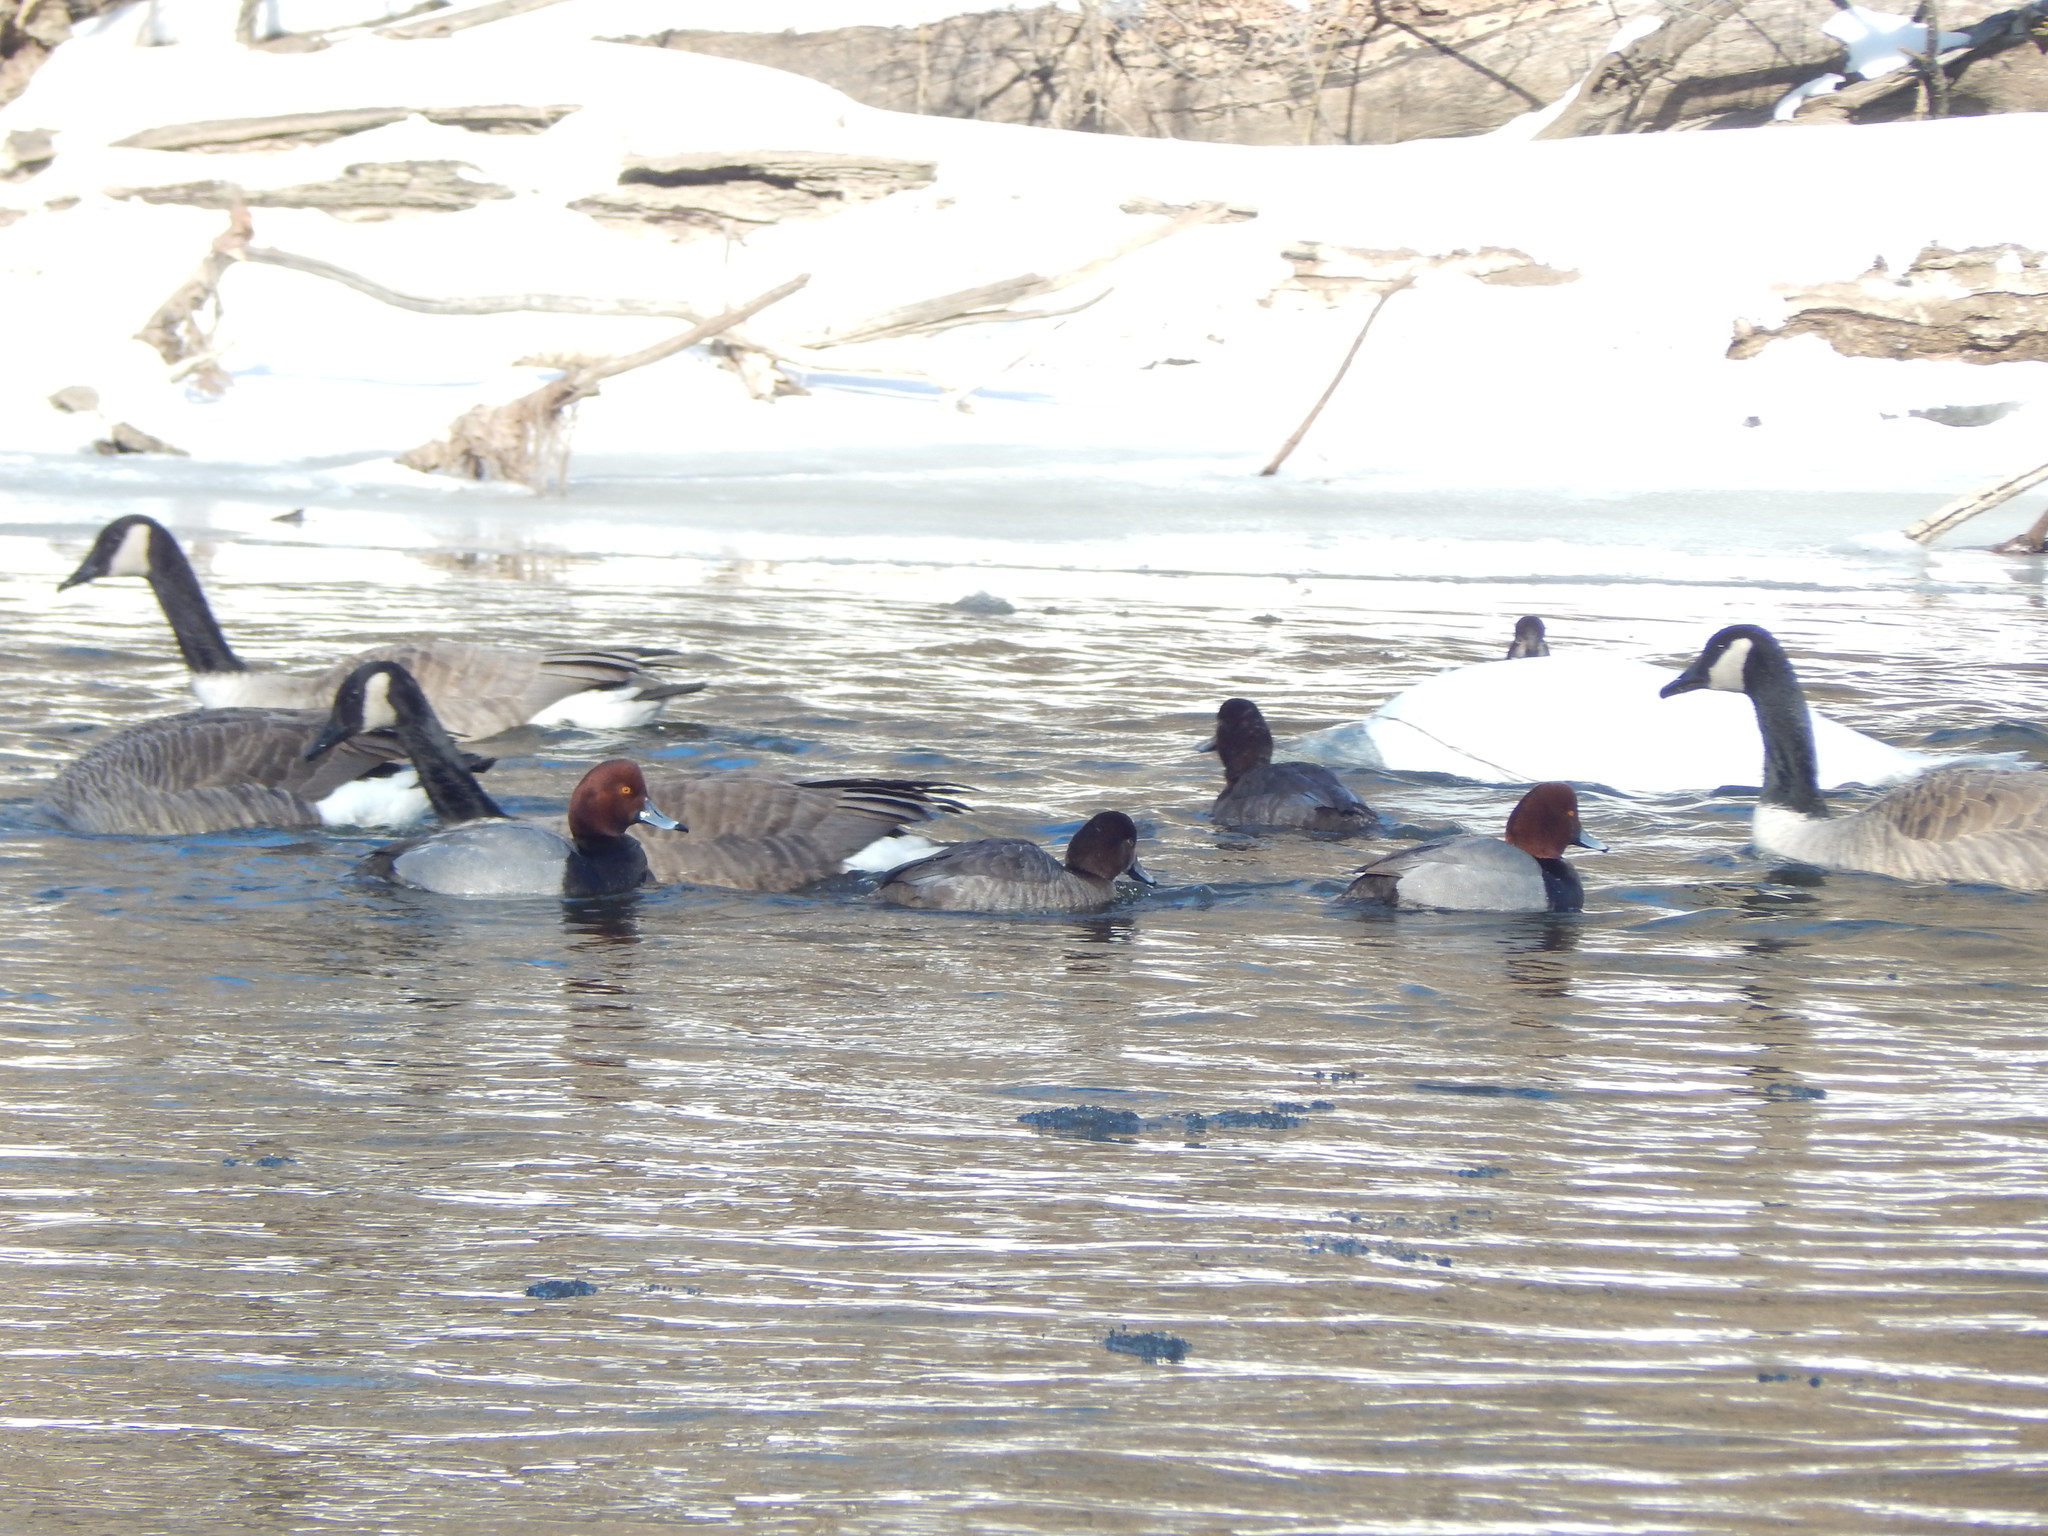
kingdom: Animalia
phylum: Chordata
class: Aves
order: Anseriformes
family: Anatidae
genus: Aythya
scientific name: Aythya americana
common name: Redhead
